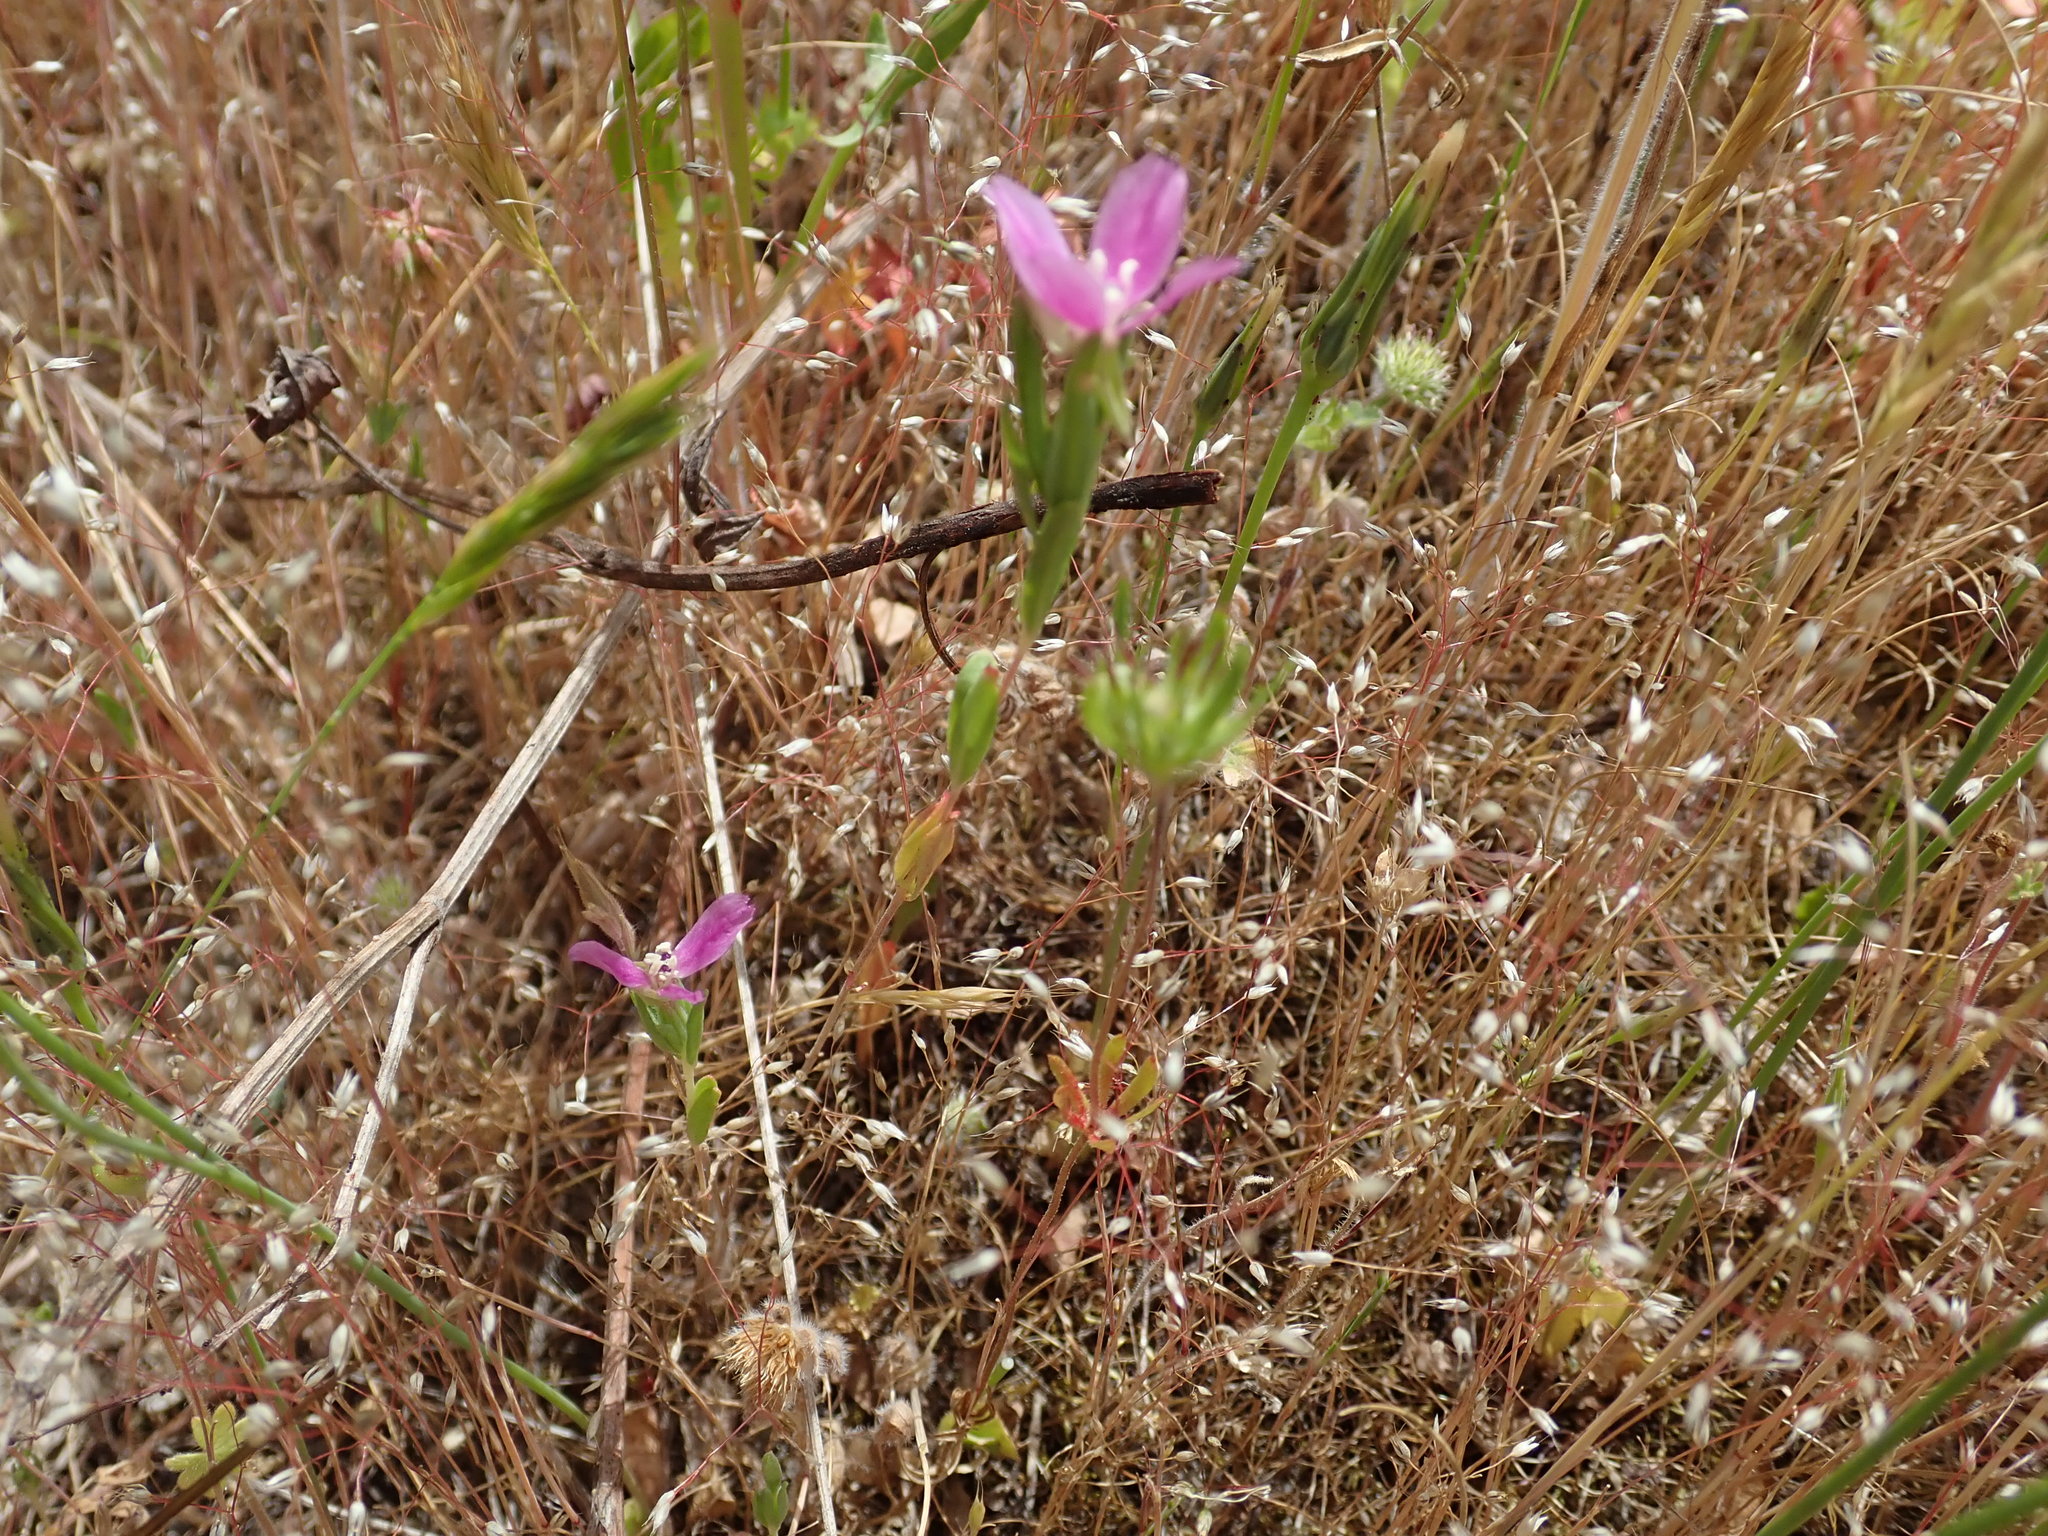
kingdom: Plantae
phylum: Tracheophyta
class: Magnoliopsida
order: Myrtales
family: Onagraceae
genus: Clarkia
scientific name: Clarkia purpurea
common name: Purple clarkia
